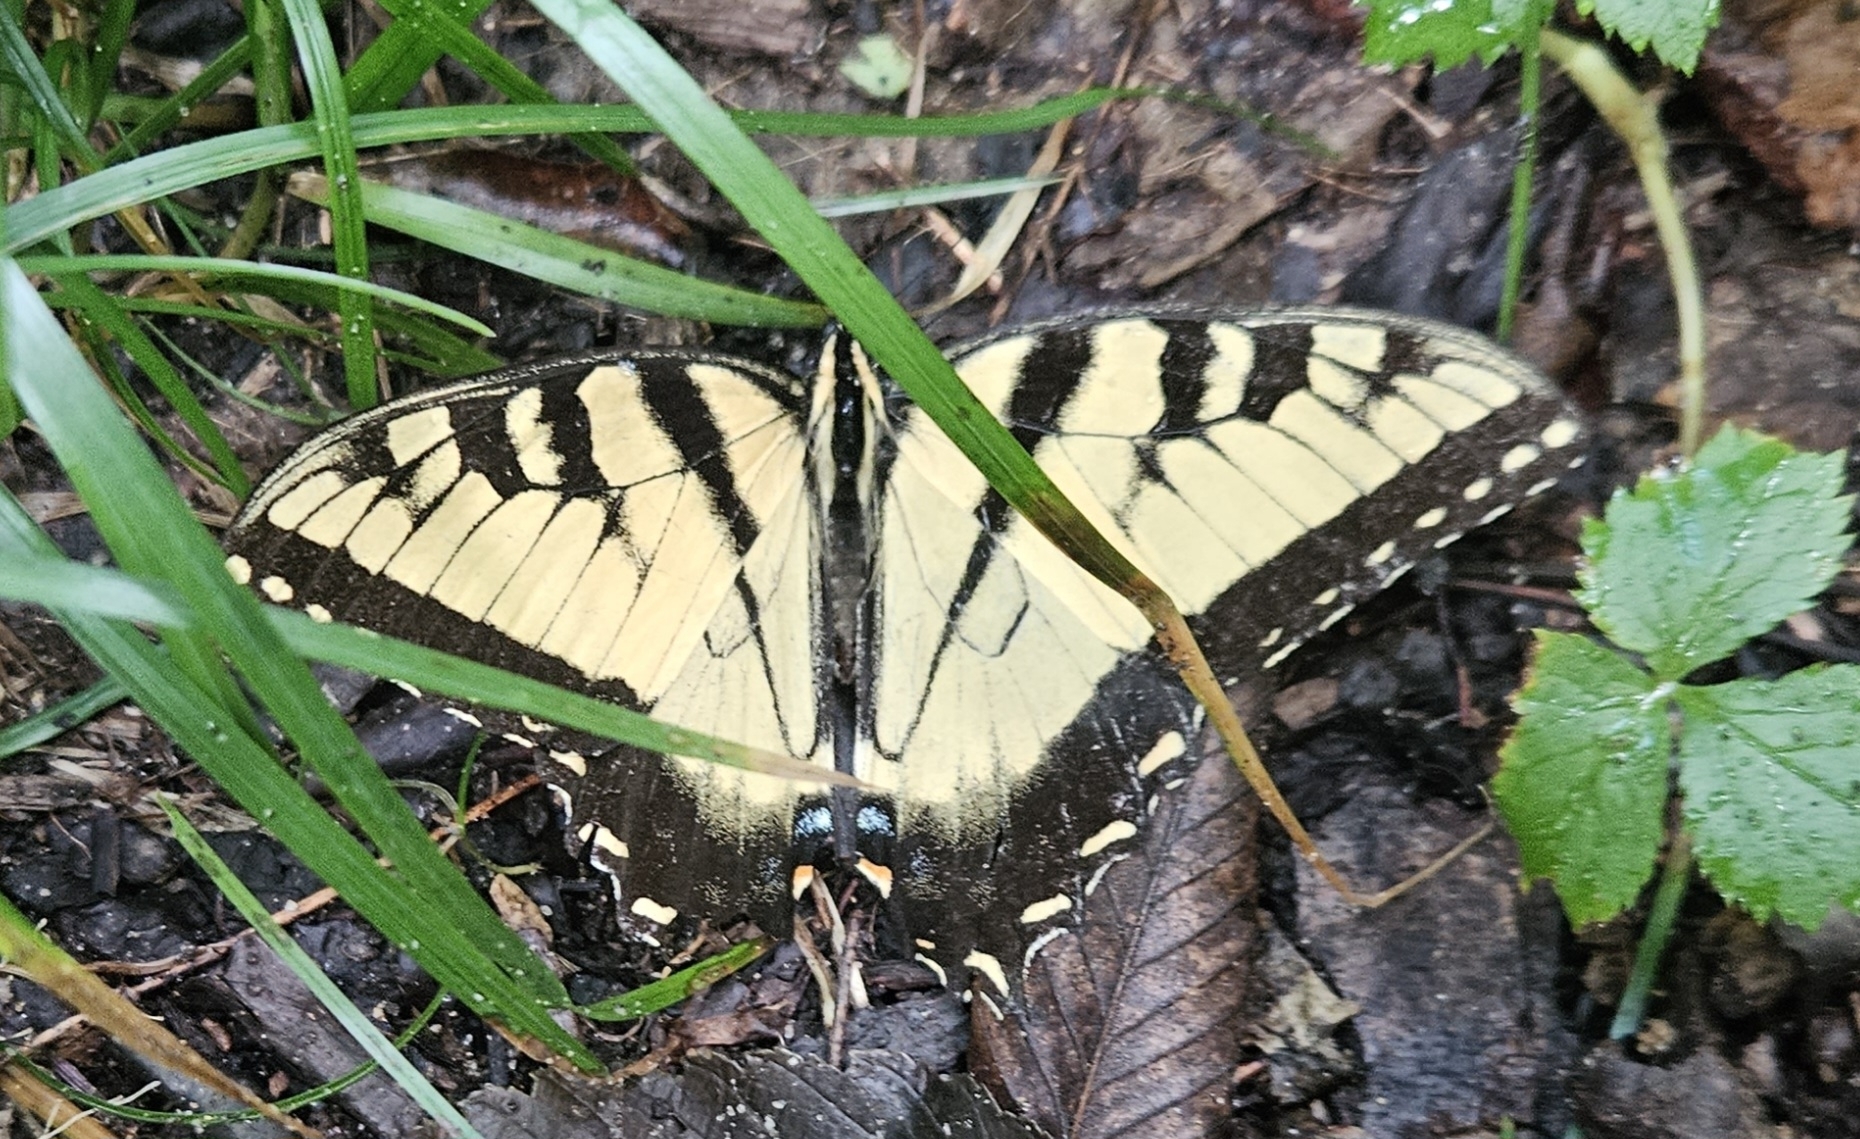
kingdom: Animalia
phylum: Arthropoda
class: Insecta
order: Lepidoptera
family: Papilionidae
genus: Papilio
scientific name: Papilio glaucus
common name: Tiger swallowtail
